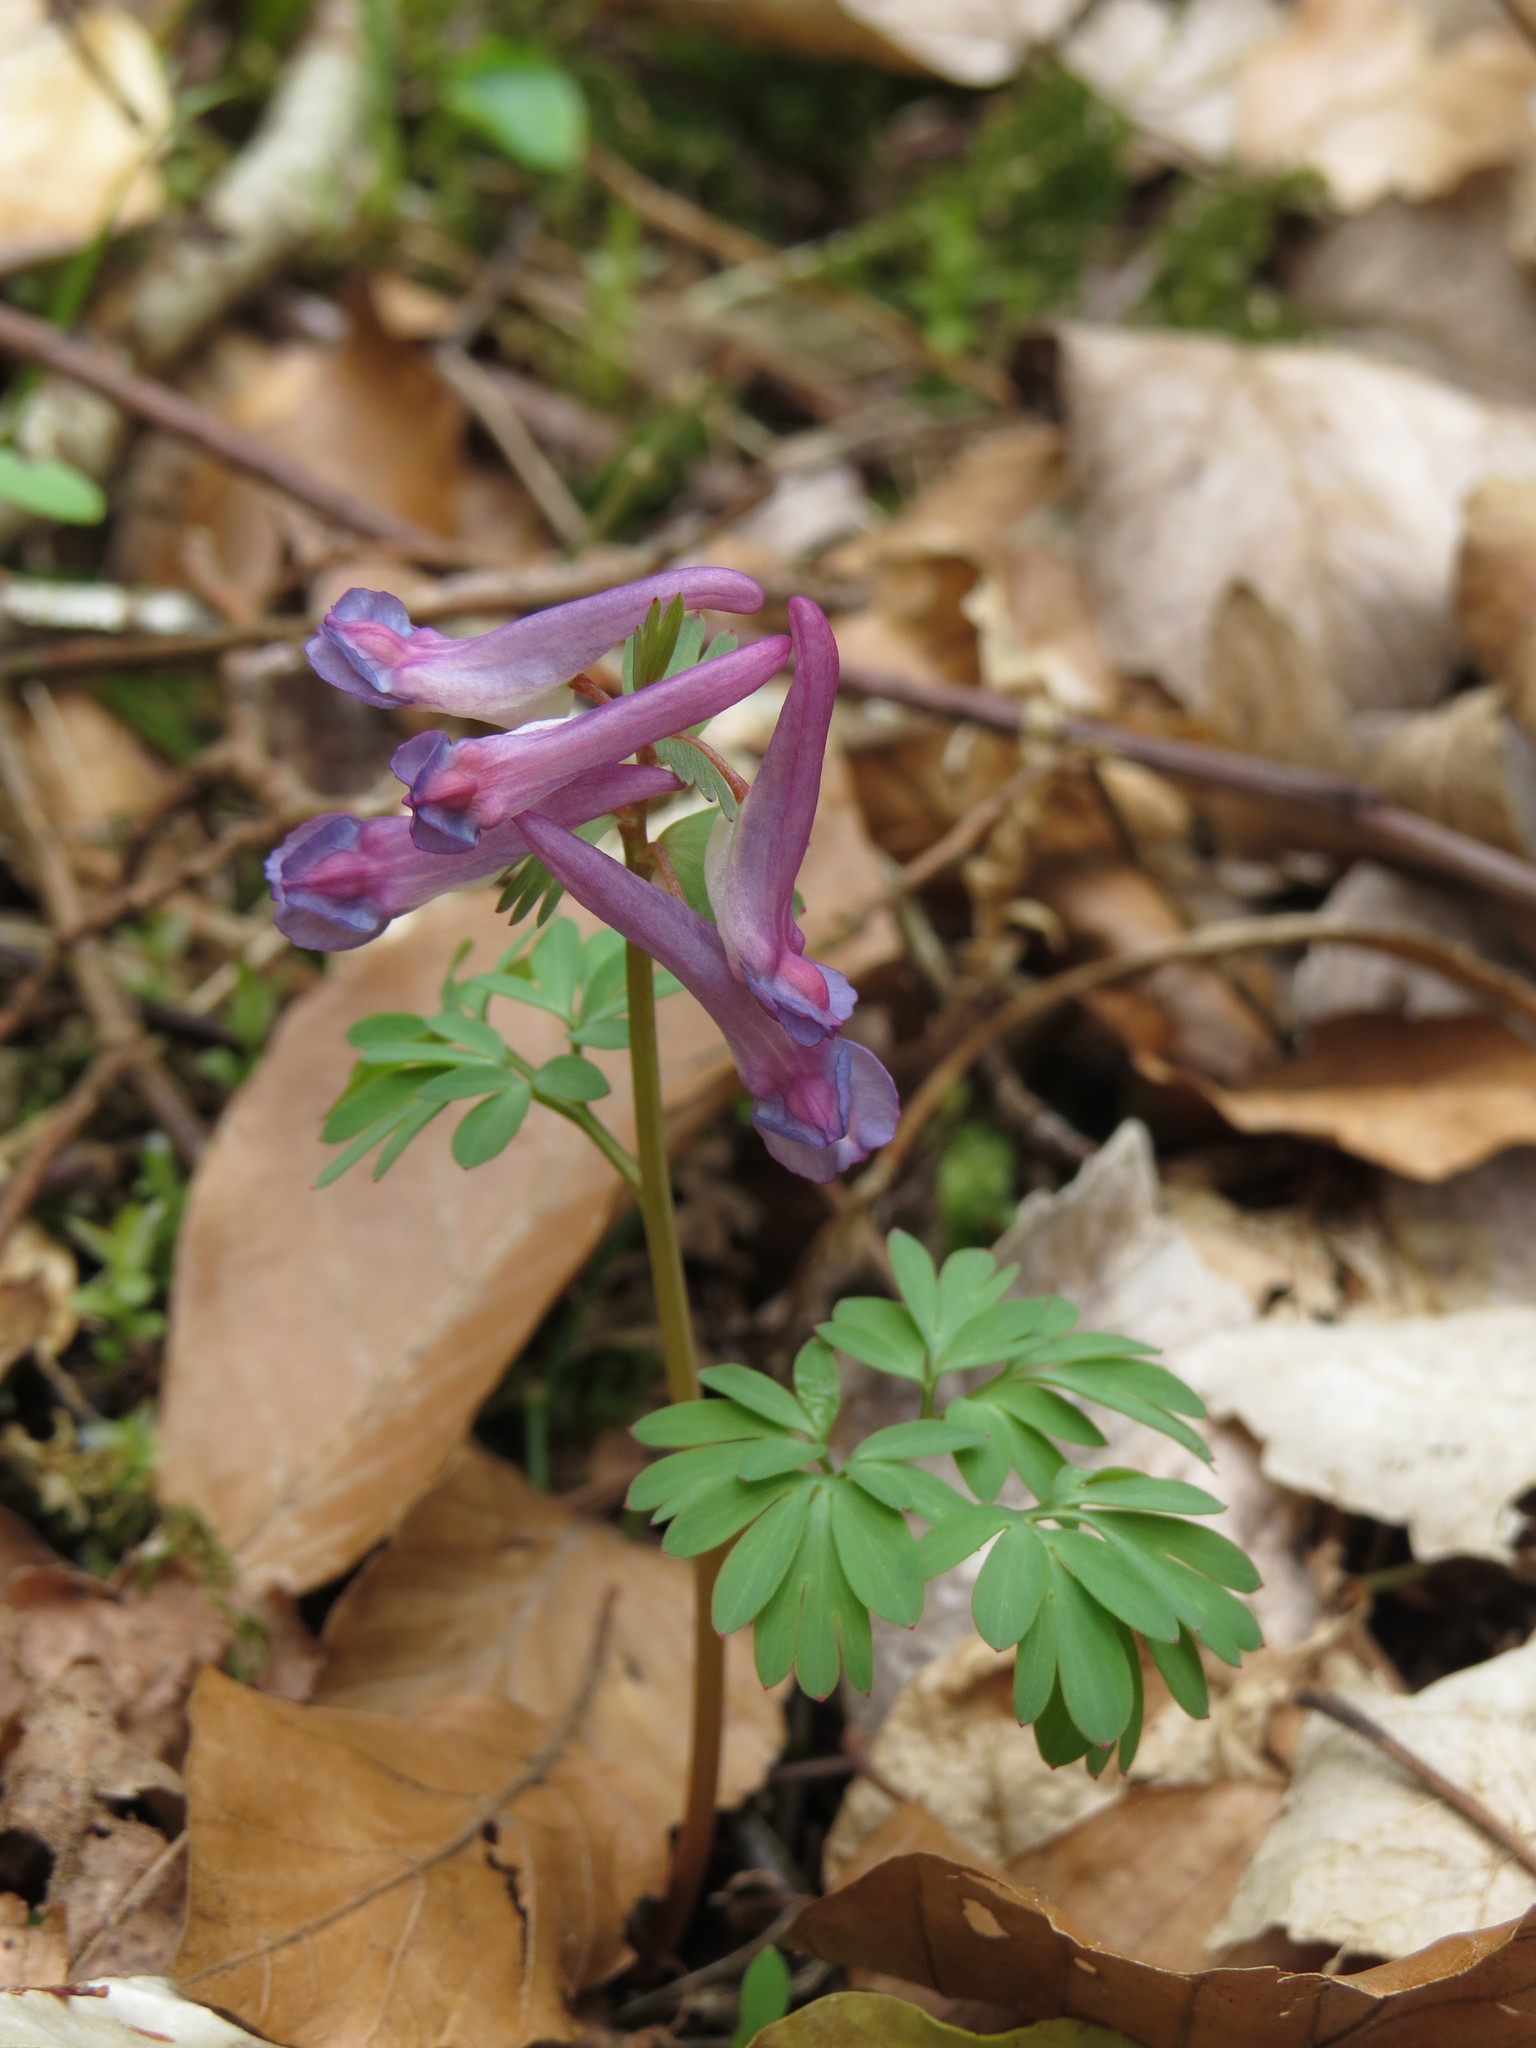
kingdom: Plantae
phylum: Tracheophyta
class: Magnoliopsida
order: Ranunculales
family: Papaveraceae
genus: Corydalis
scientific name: Corydalis solida
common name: Bird-in-a-bush
